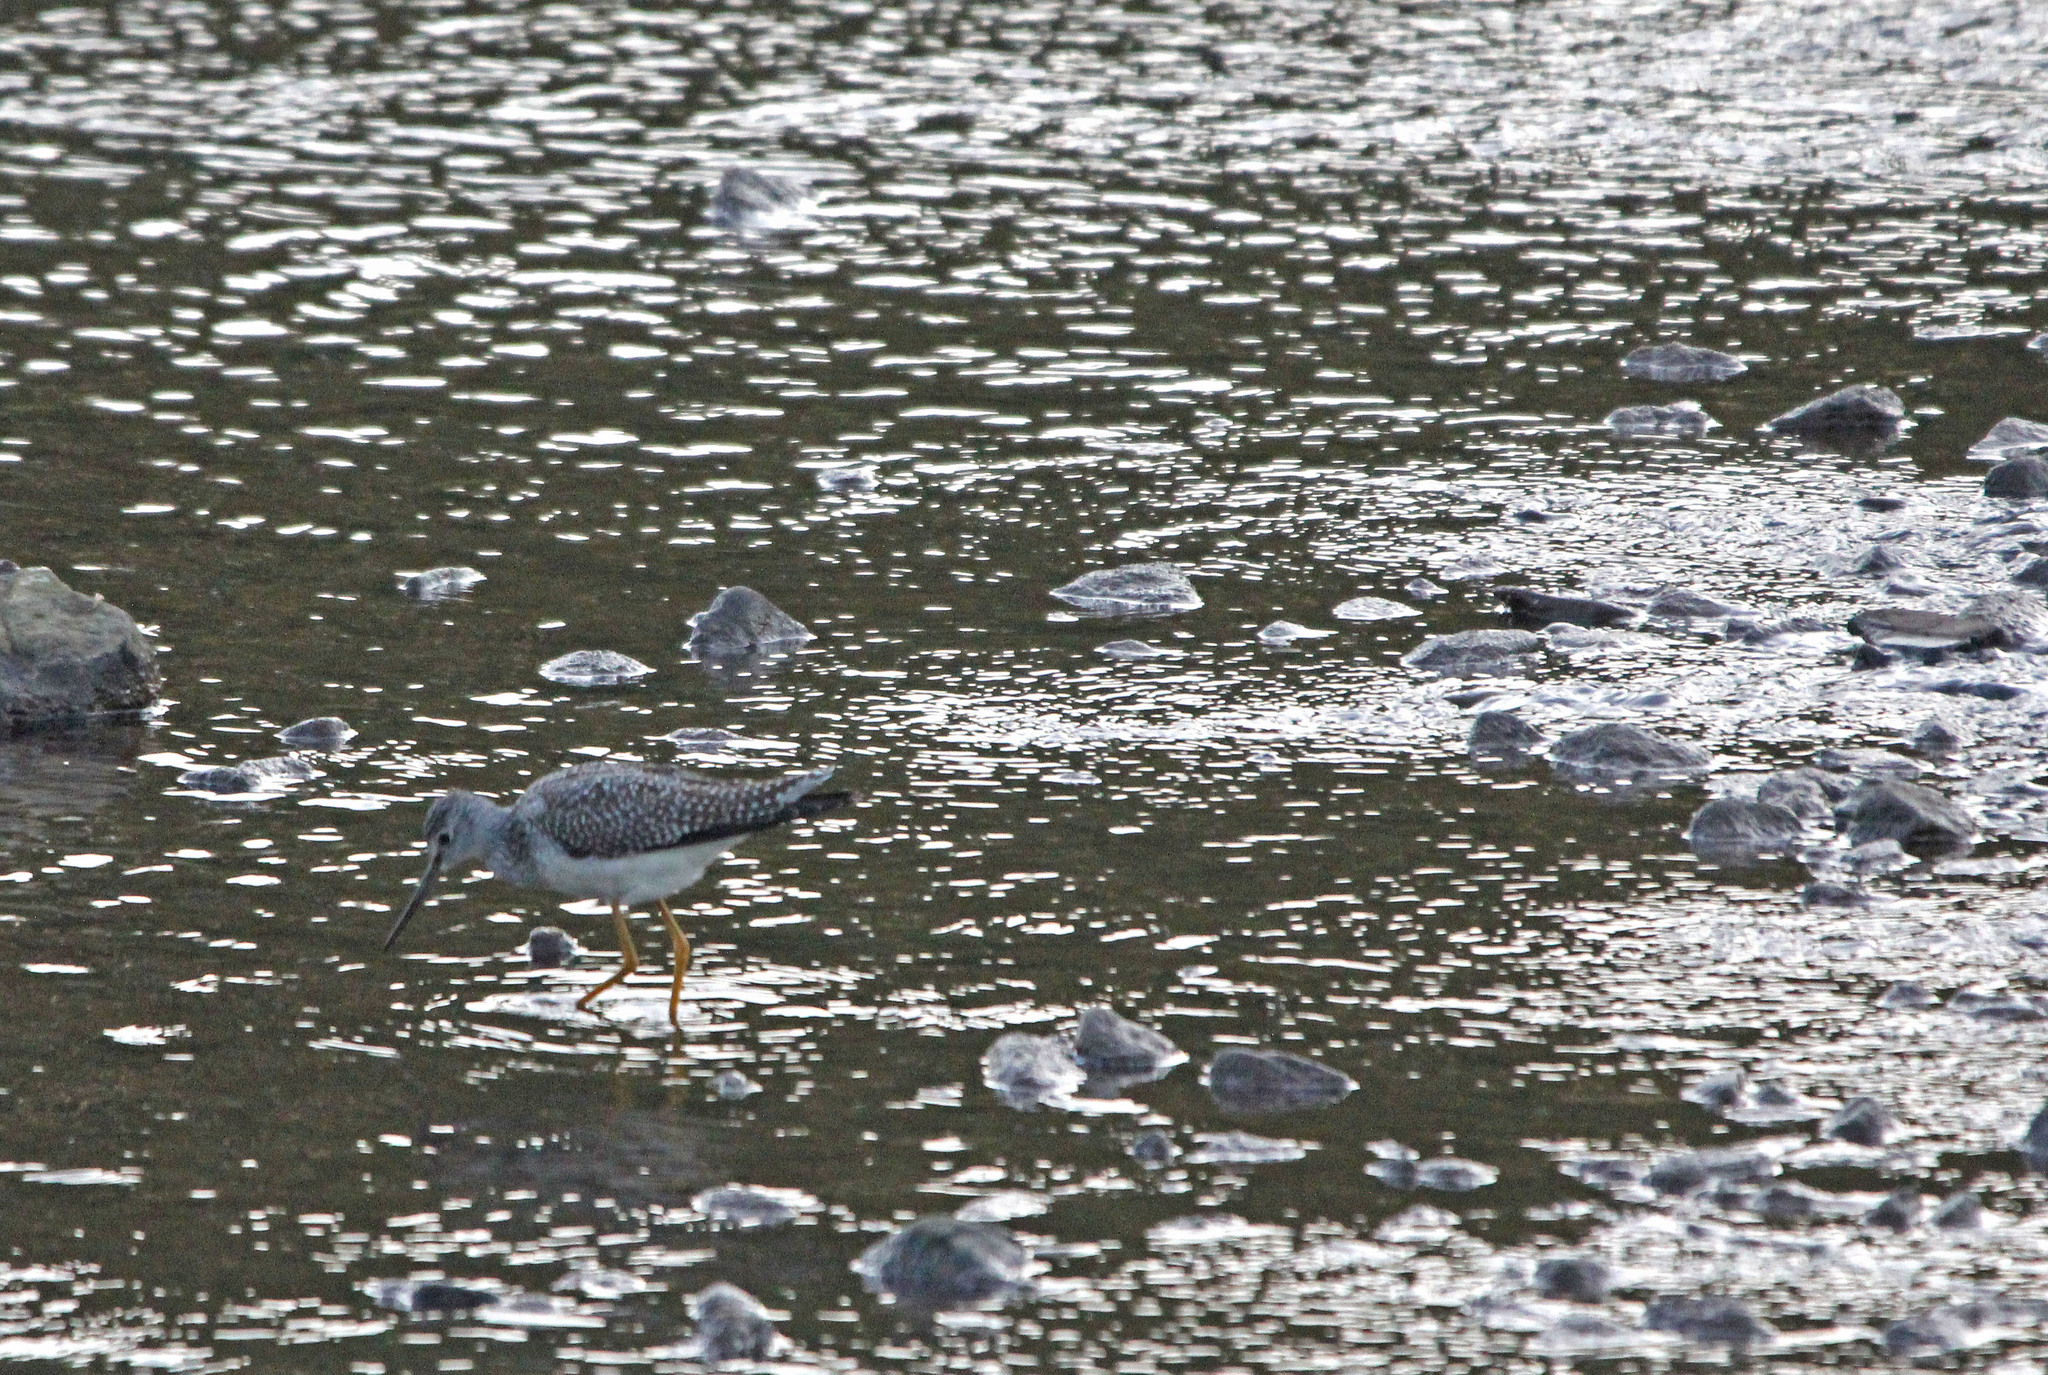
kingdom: Animalia
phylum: Chordata
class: Aves
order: Charadriiformes
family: Scolopacidae
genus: Tringa
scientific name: Tringa melanoleuca
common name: Greater yellowlegs
